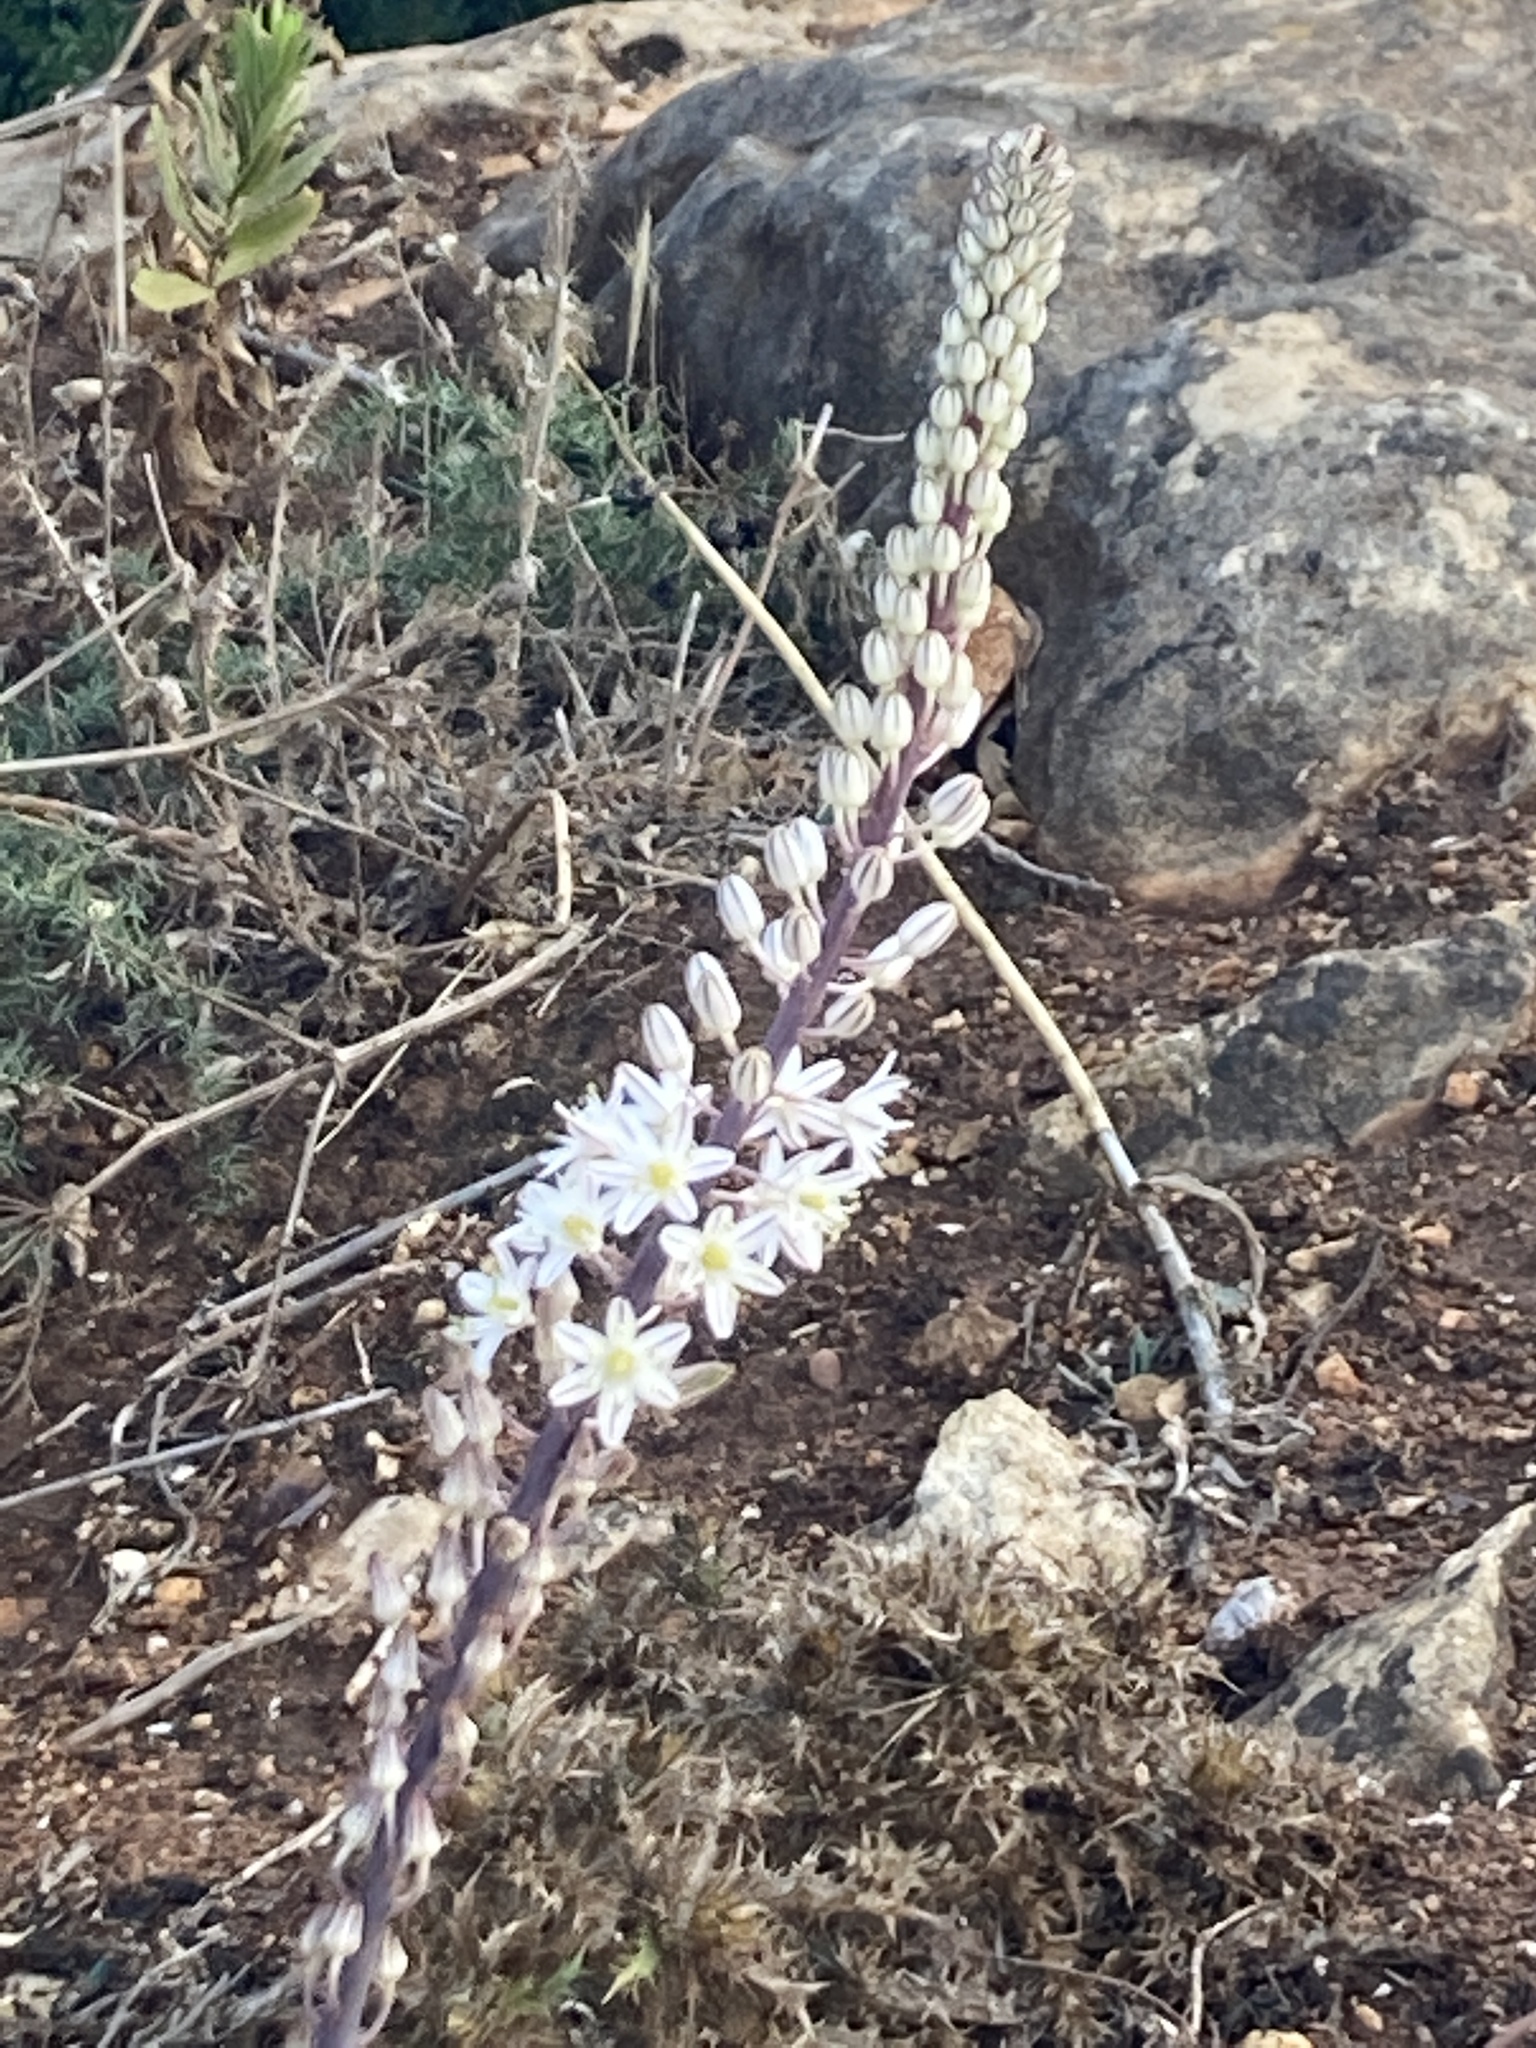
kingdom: Plantae
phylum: Tracheophyta
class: Liliopsida
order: Asparagales
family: Asparagaceae
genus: Drimia
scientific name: Drimia maritima
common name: Maritime squill
